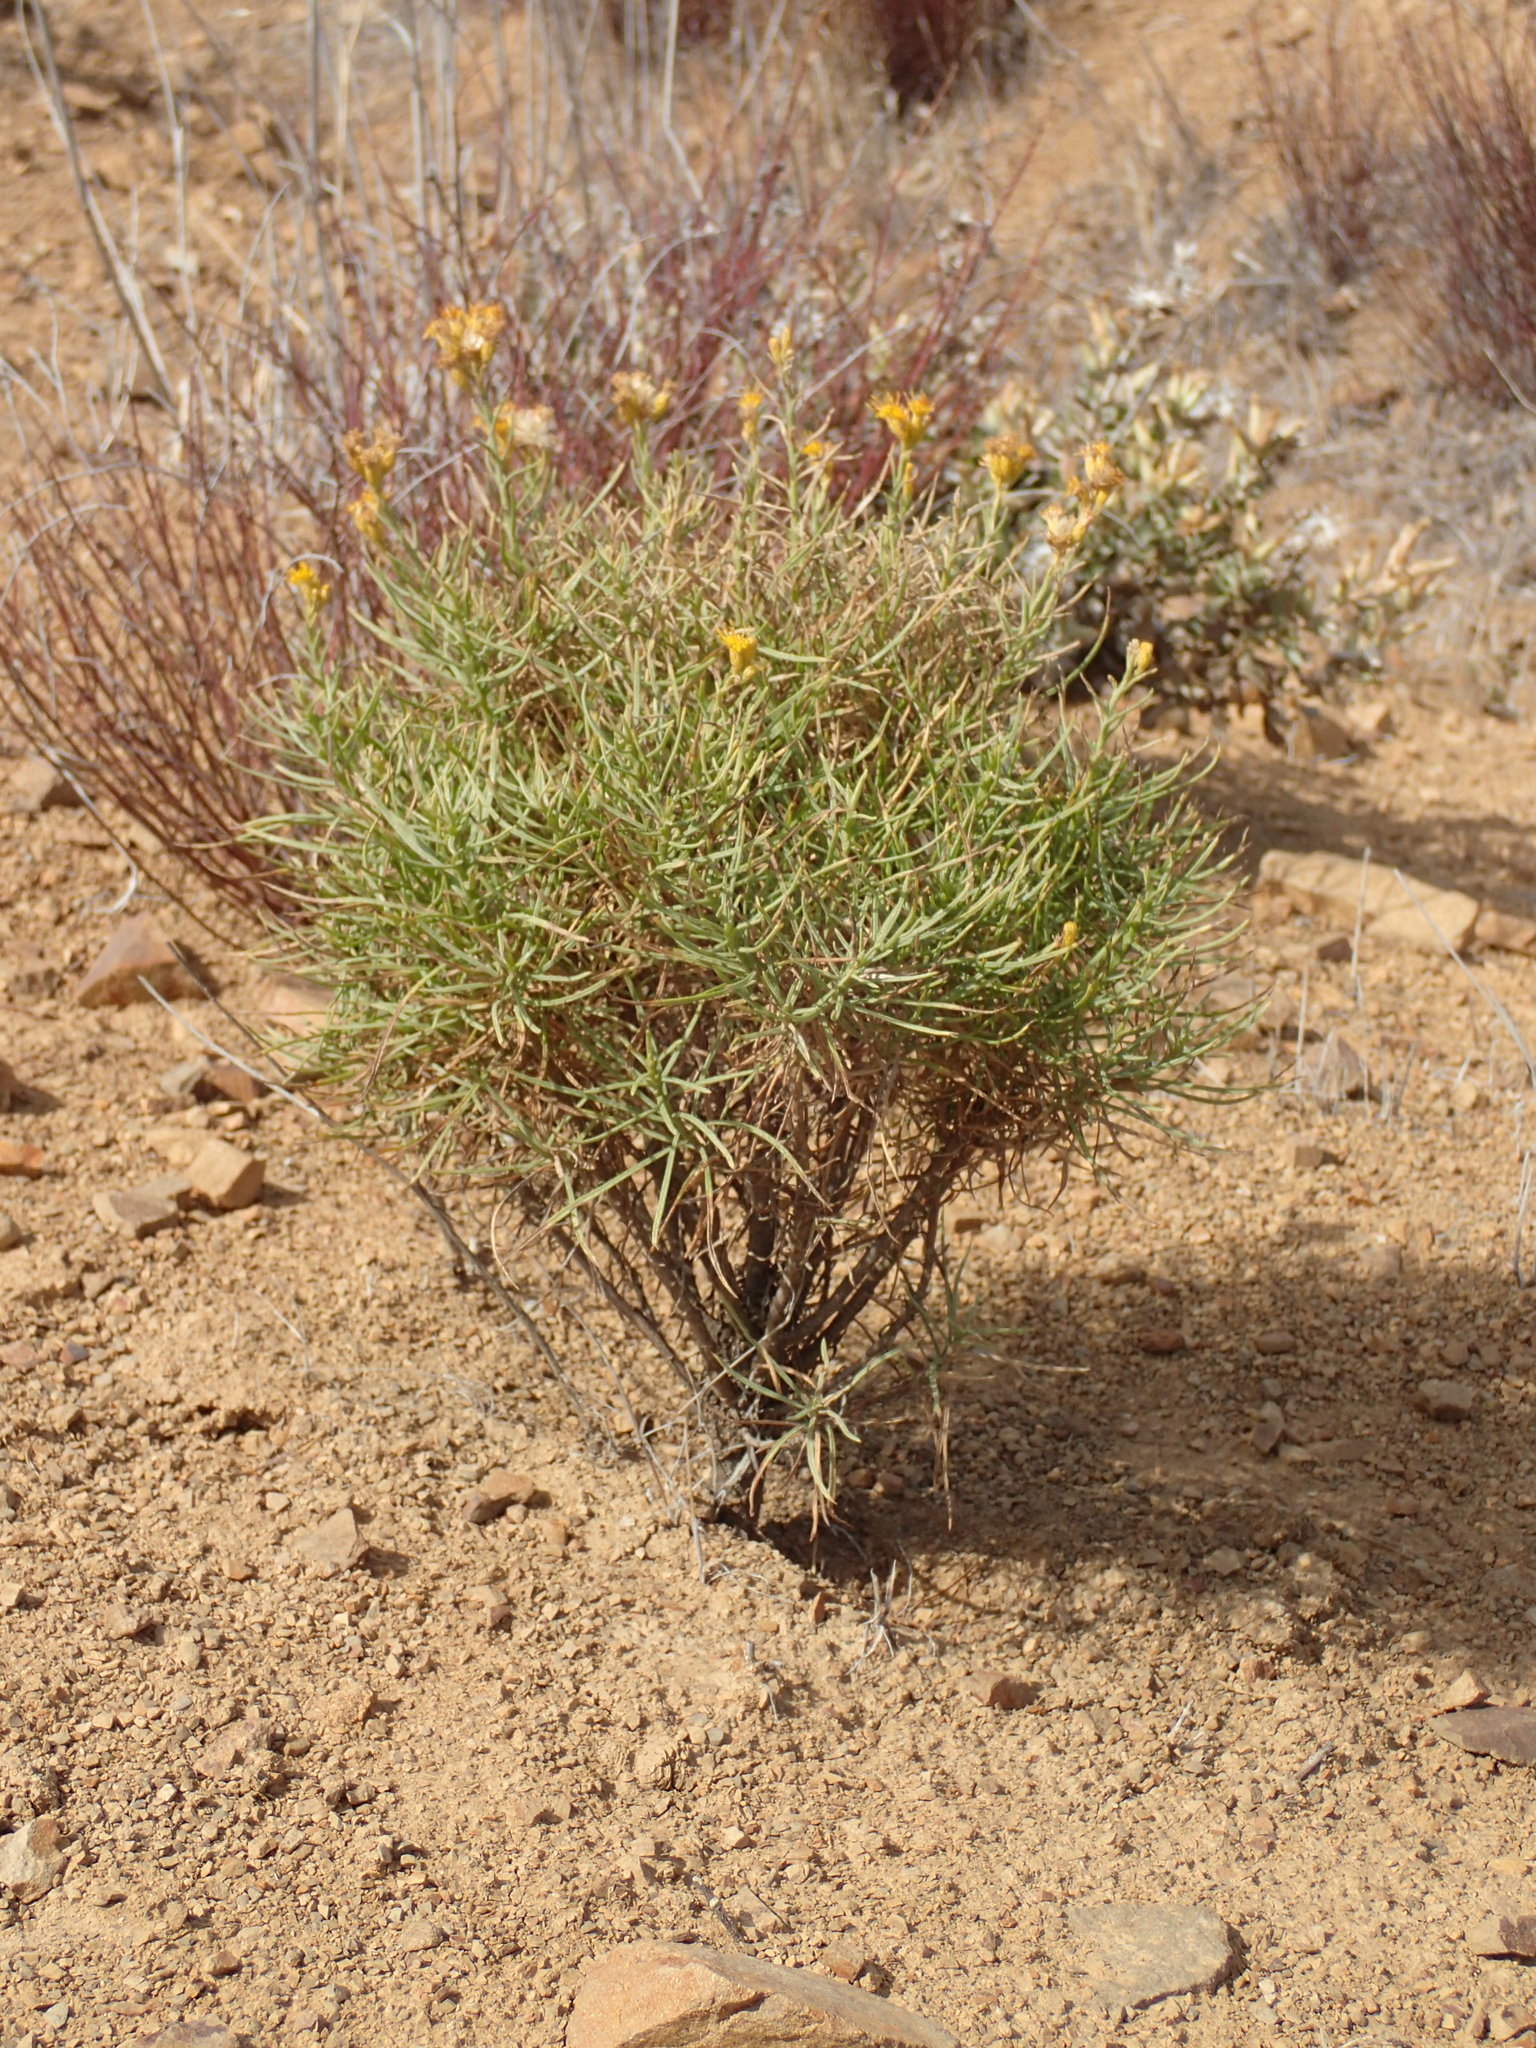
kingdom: Plantae
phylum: Tracheophyta
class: Magnoliopsida
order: Asterales
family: Asteraceae
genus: Ericameria
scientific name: Ericameria arborescens
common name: Goldenfleece
